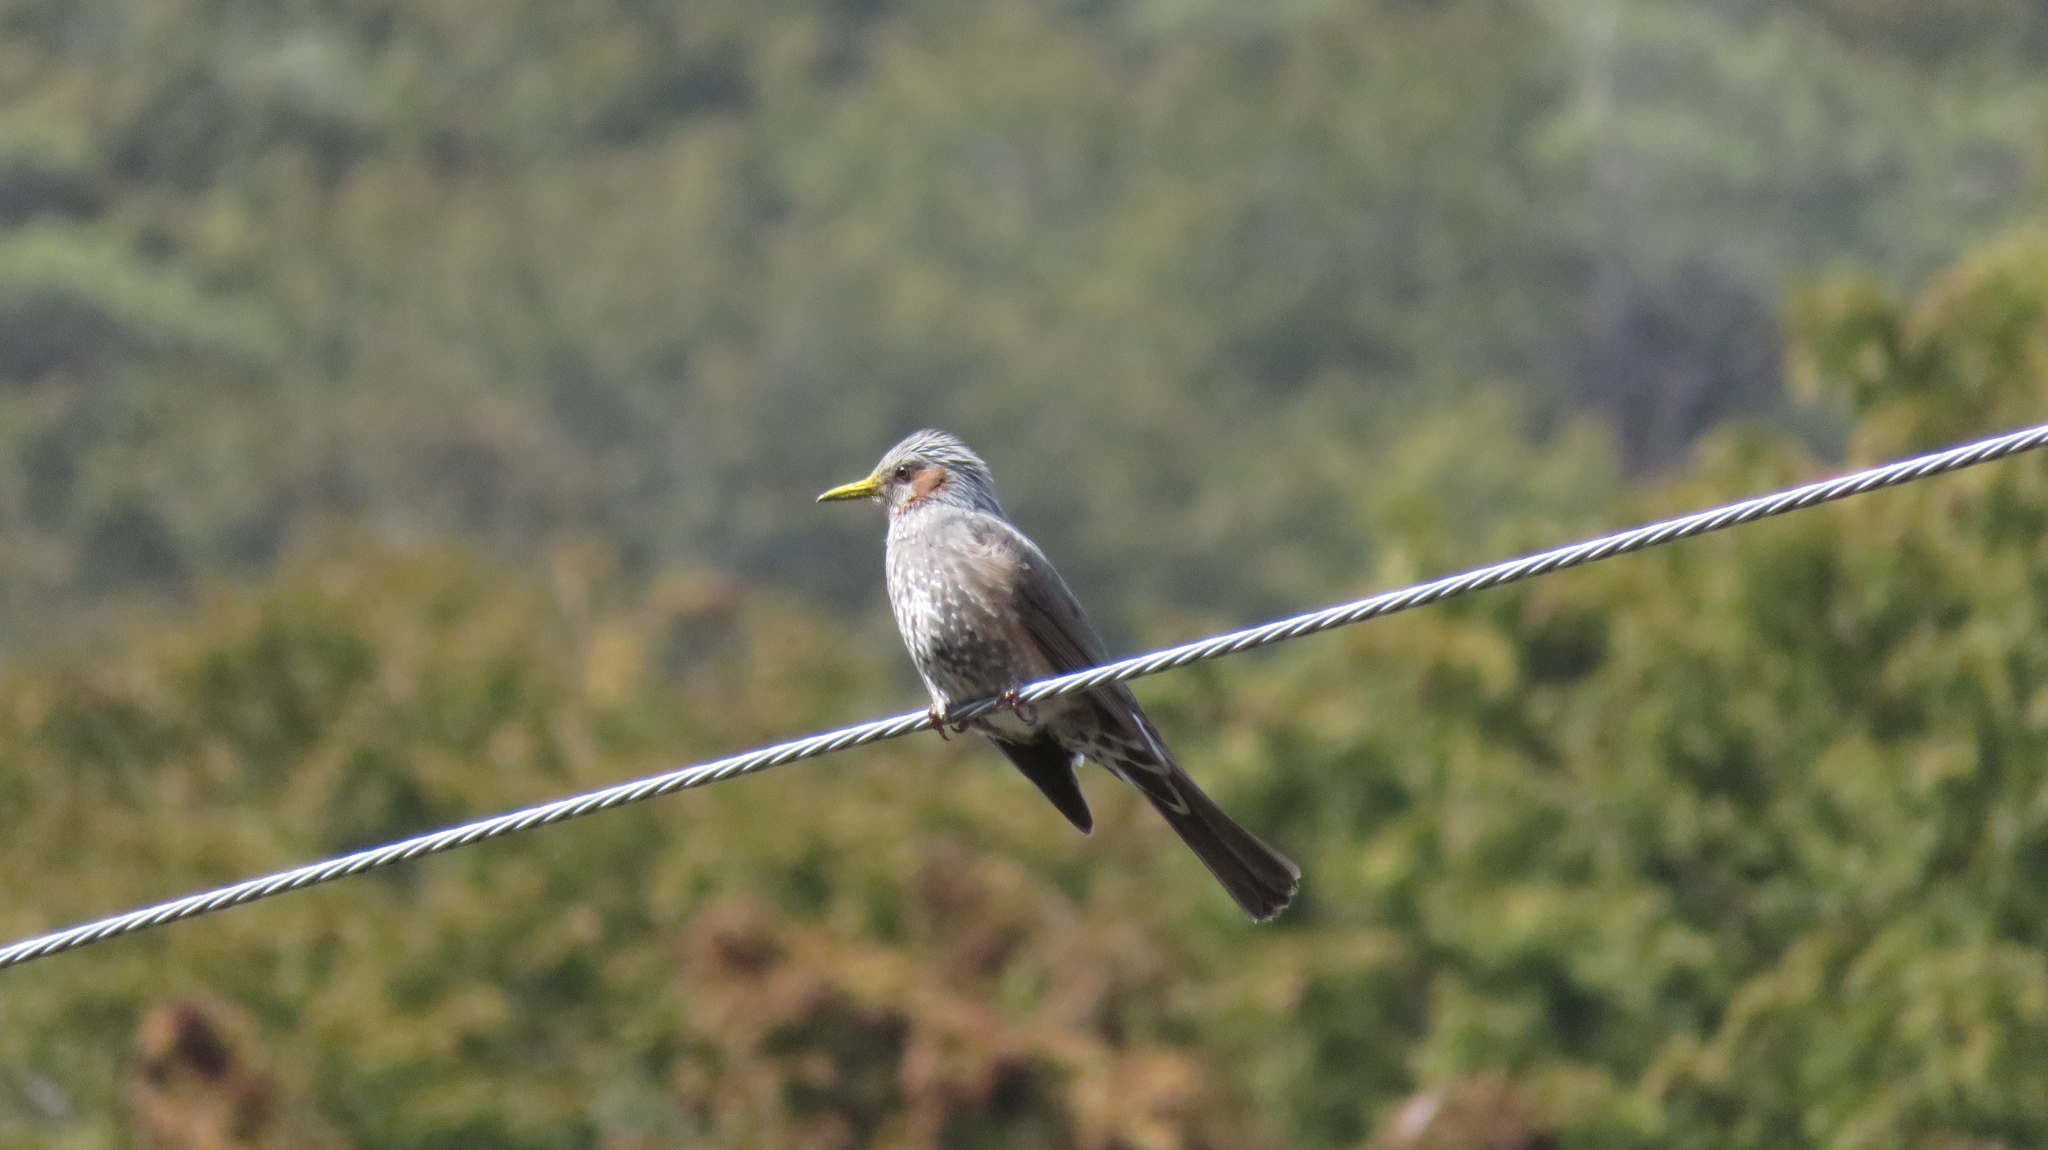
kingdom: Animalia
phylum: Chordata
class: Aves
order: Passeriformes
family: Pycnonotidae
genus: Hypsipetes
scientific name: Hypsipetes amaurotis
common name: Brown-eared bulbul
